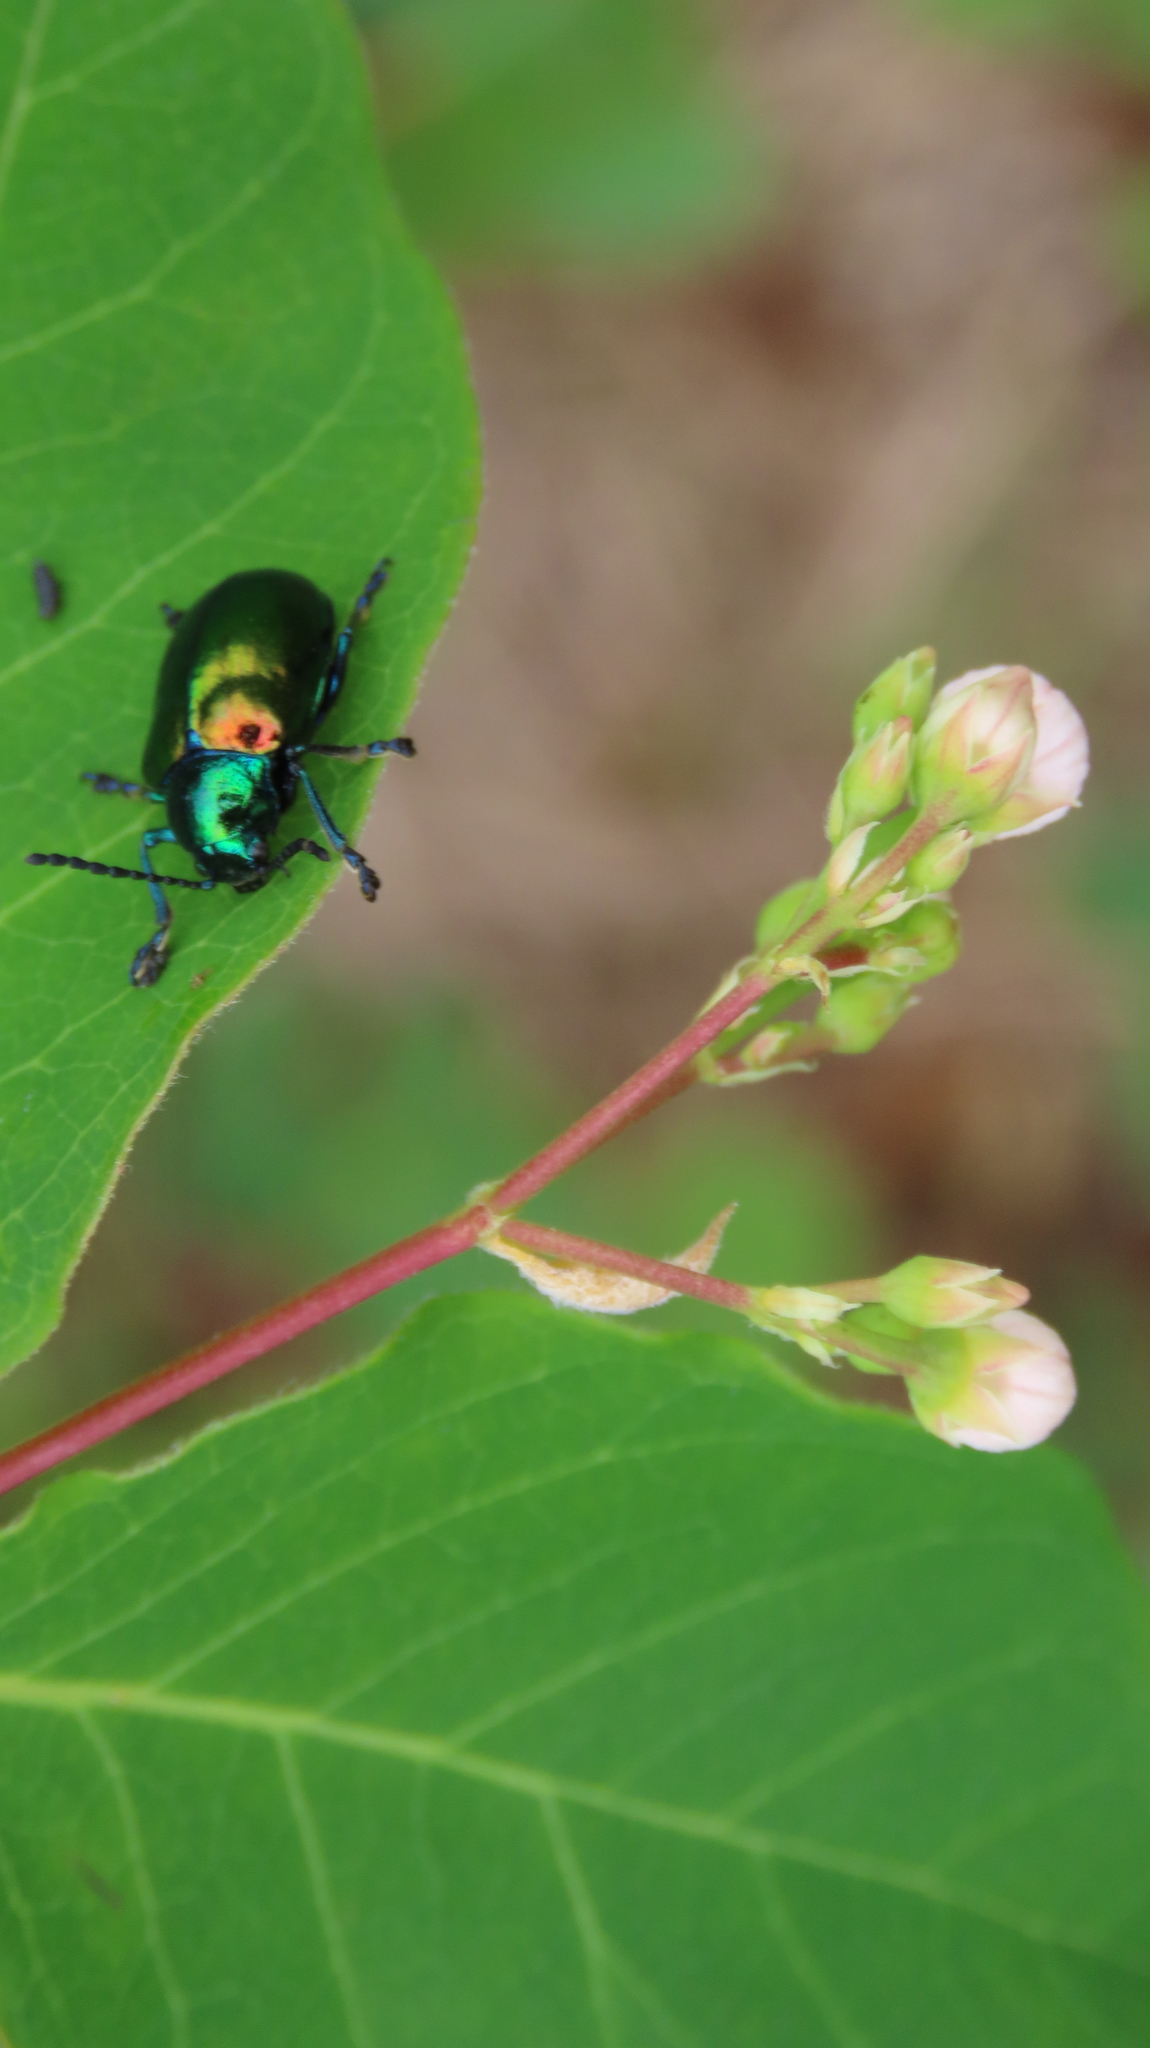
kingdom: Animalia
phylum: Arthropoda
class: Insecta
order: Coleoptera
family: Chrysomelidae
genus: Chrysochus
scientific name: Chrysochus auratus
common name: Dogbane leaf beetle
